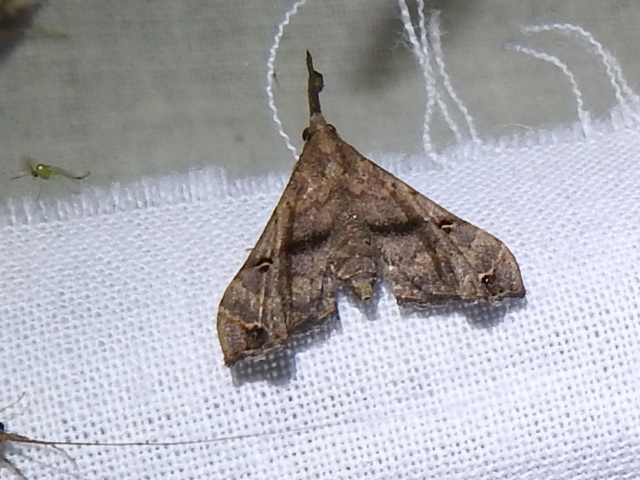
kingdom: Animalia
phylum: Arthropoda
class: Insecta
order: Lepidoptera
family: Erebidae
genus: Palthis
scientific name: Palthis asopialis
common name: Faint-spotted palthis moth
